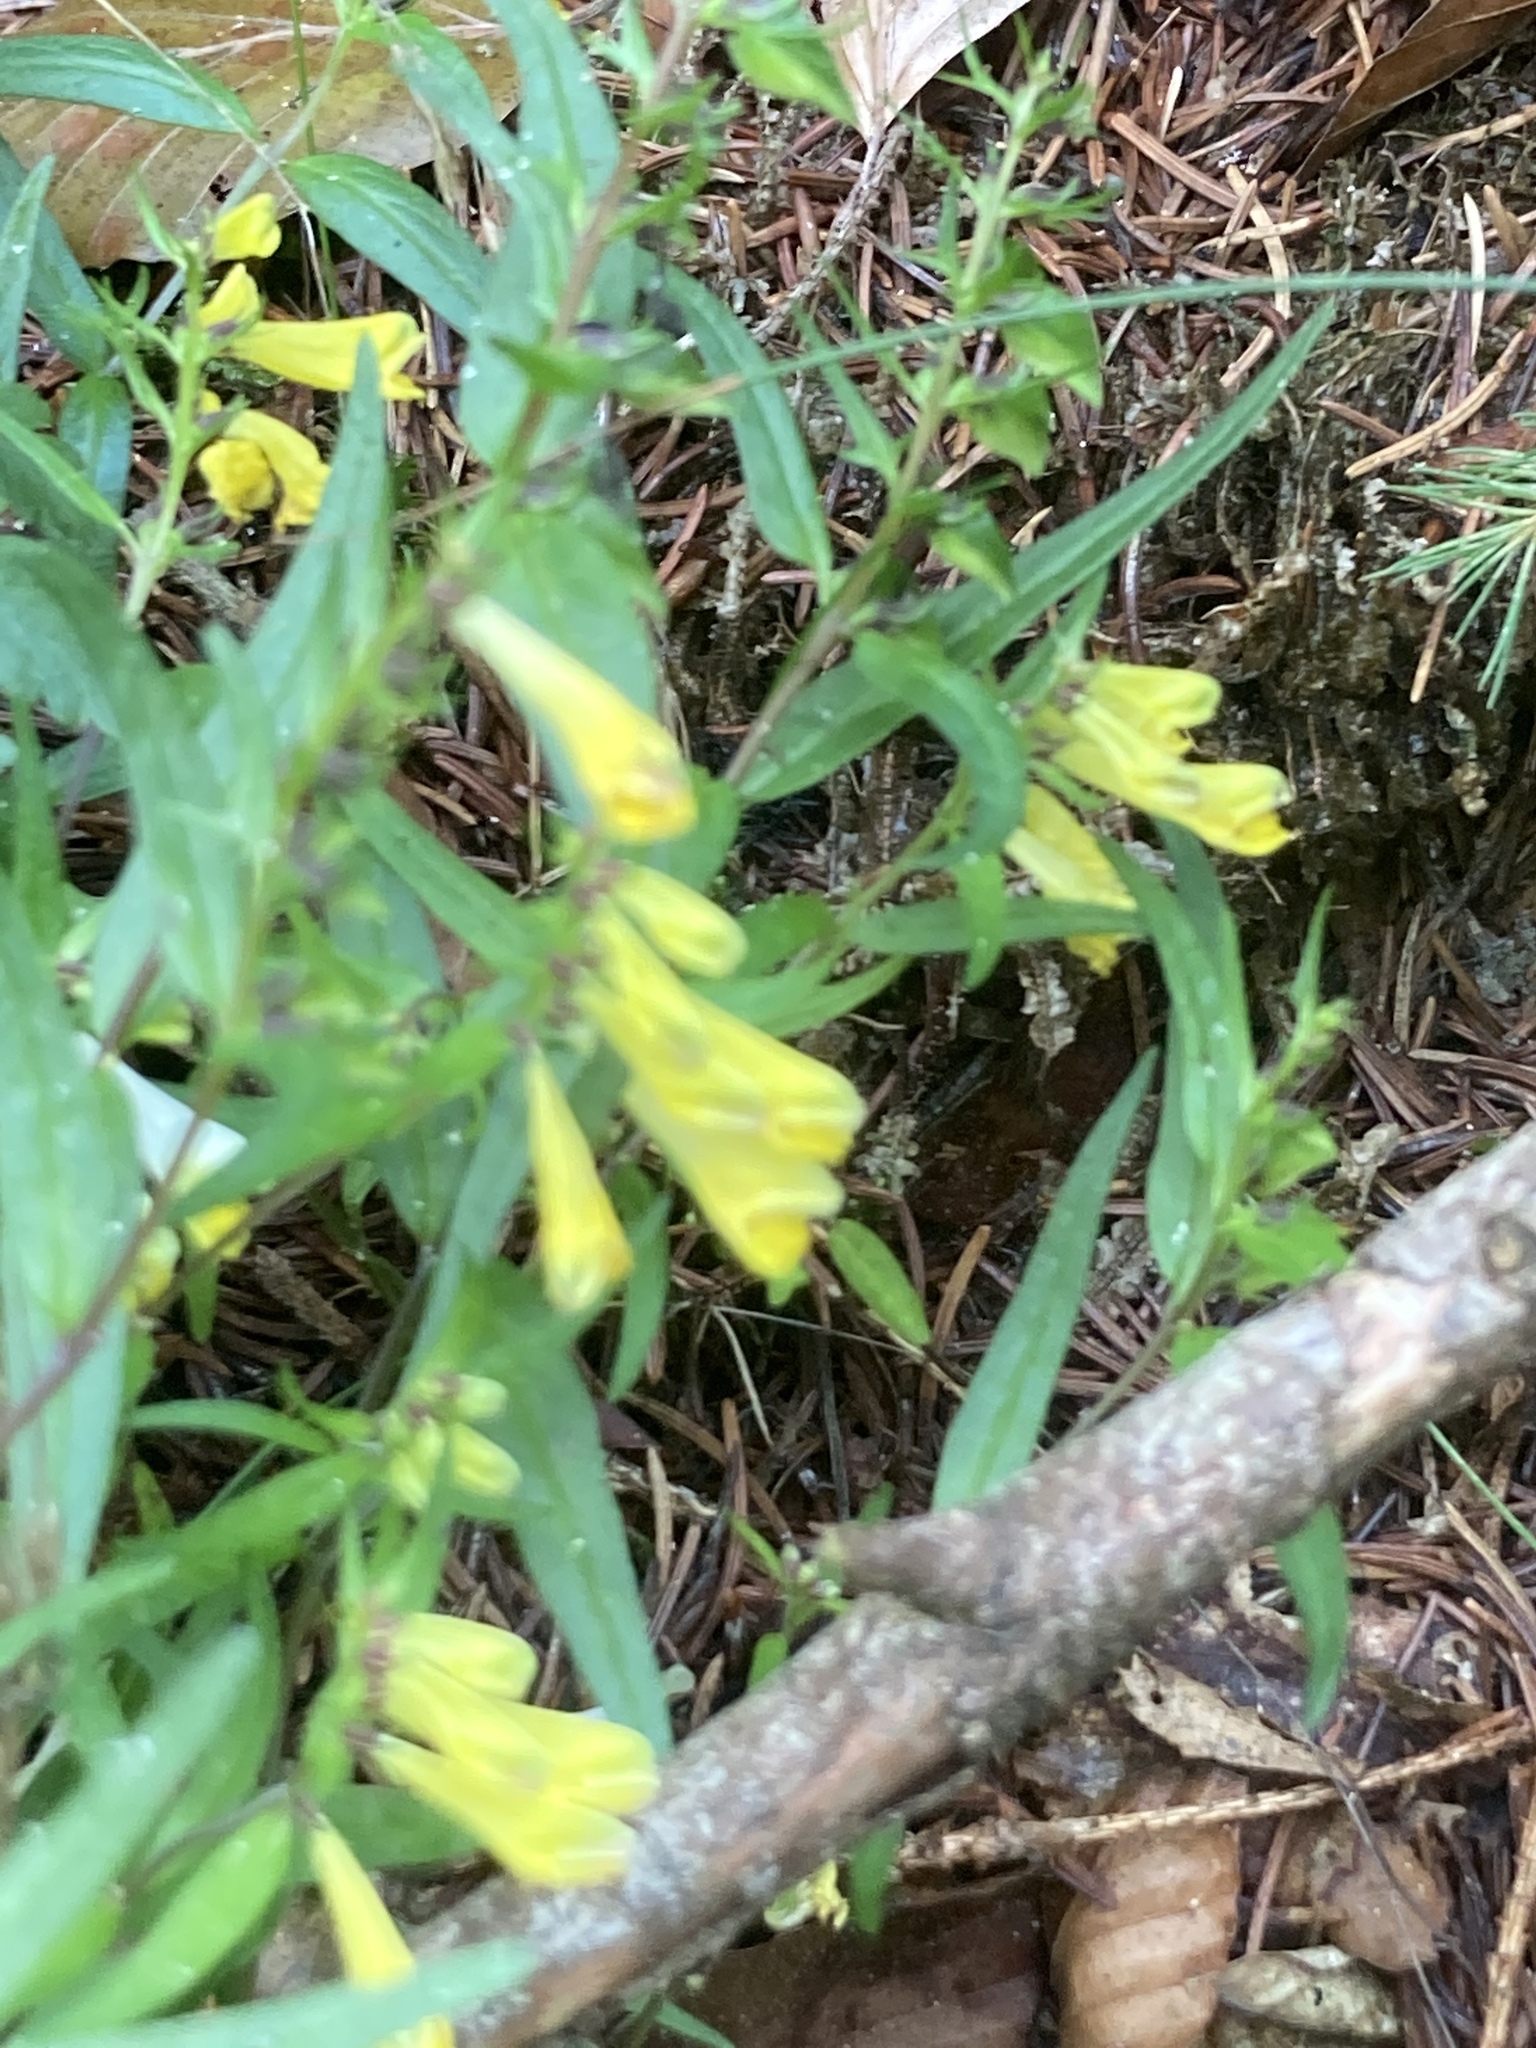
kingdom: Plantae
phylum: Tracheophyta
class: Magnoliopsida
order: Lamiales
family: Orobanchaceae
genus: Melampyrum
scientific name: Melampyrum pratense
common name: Common cow-wheat
